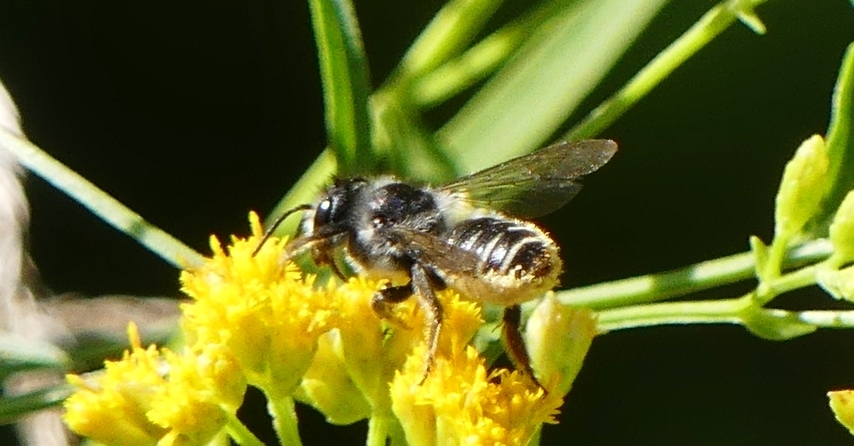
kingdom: Animalia
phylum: Arthropoda
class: Insecta
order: Hymenoptera
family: Megachilidae
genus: Megachile
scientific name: Megachile relativa
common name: Golden-tailed leafcutter
